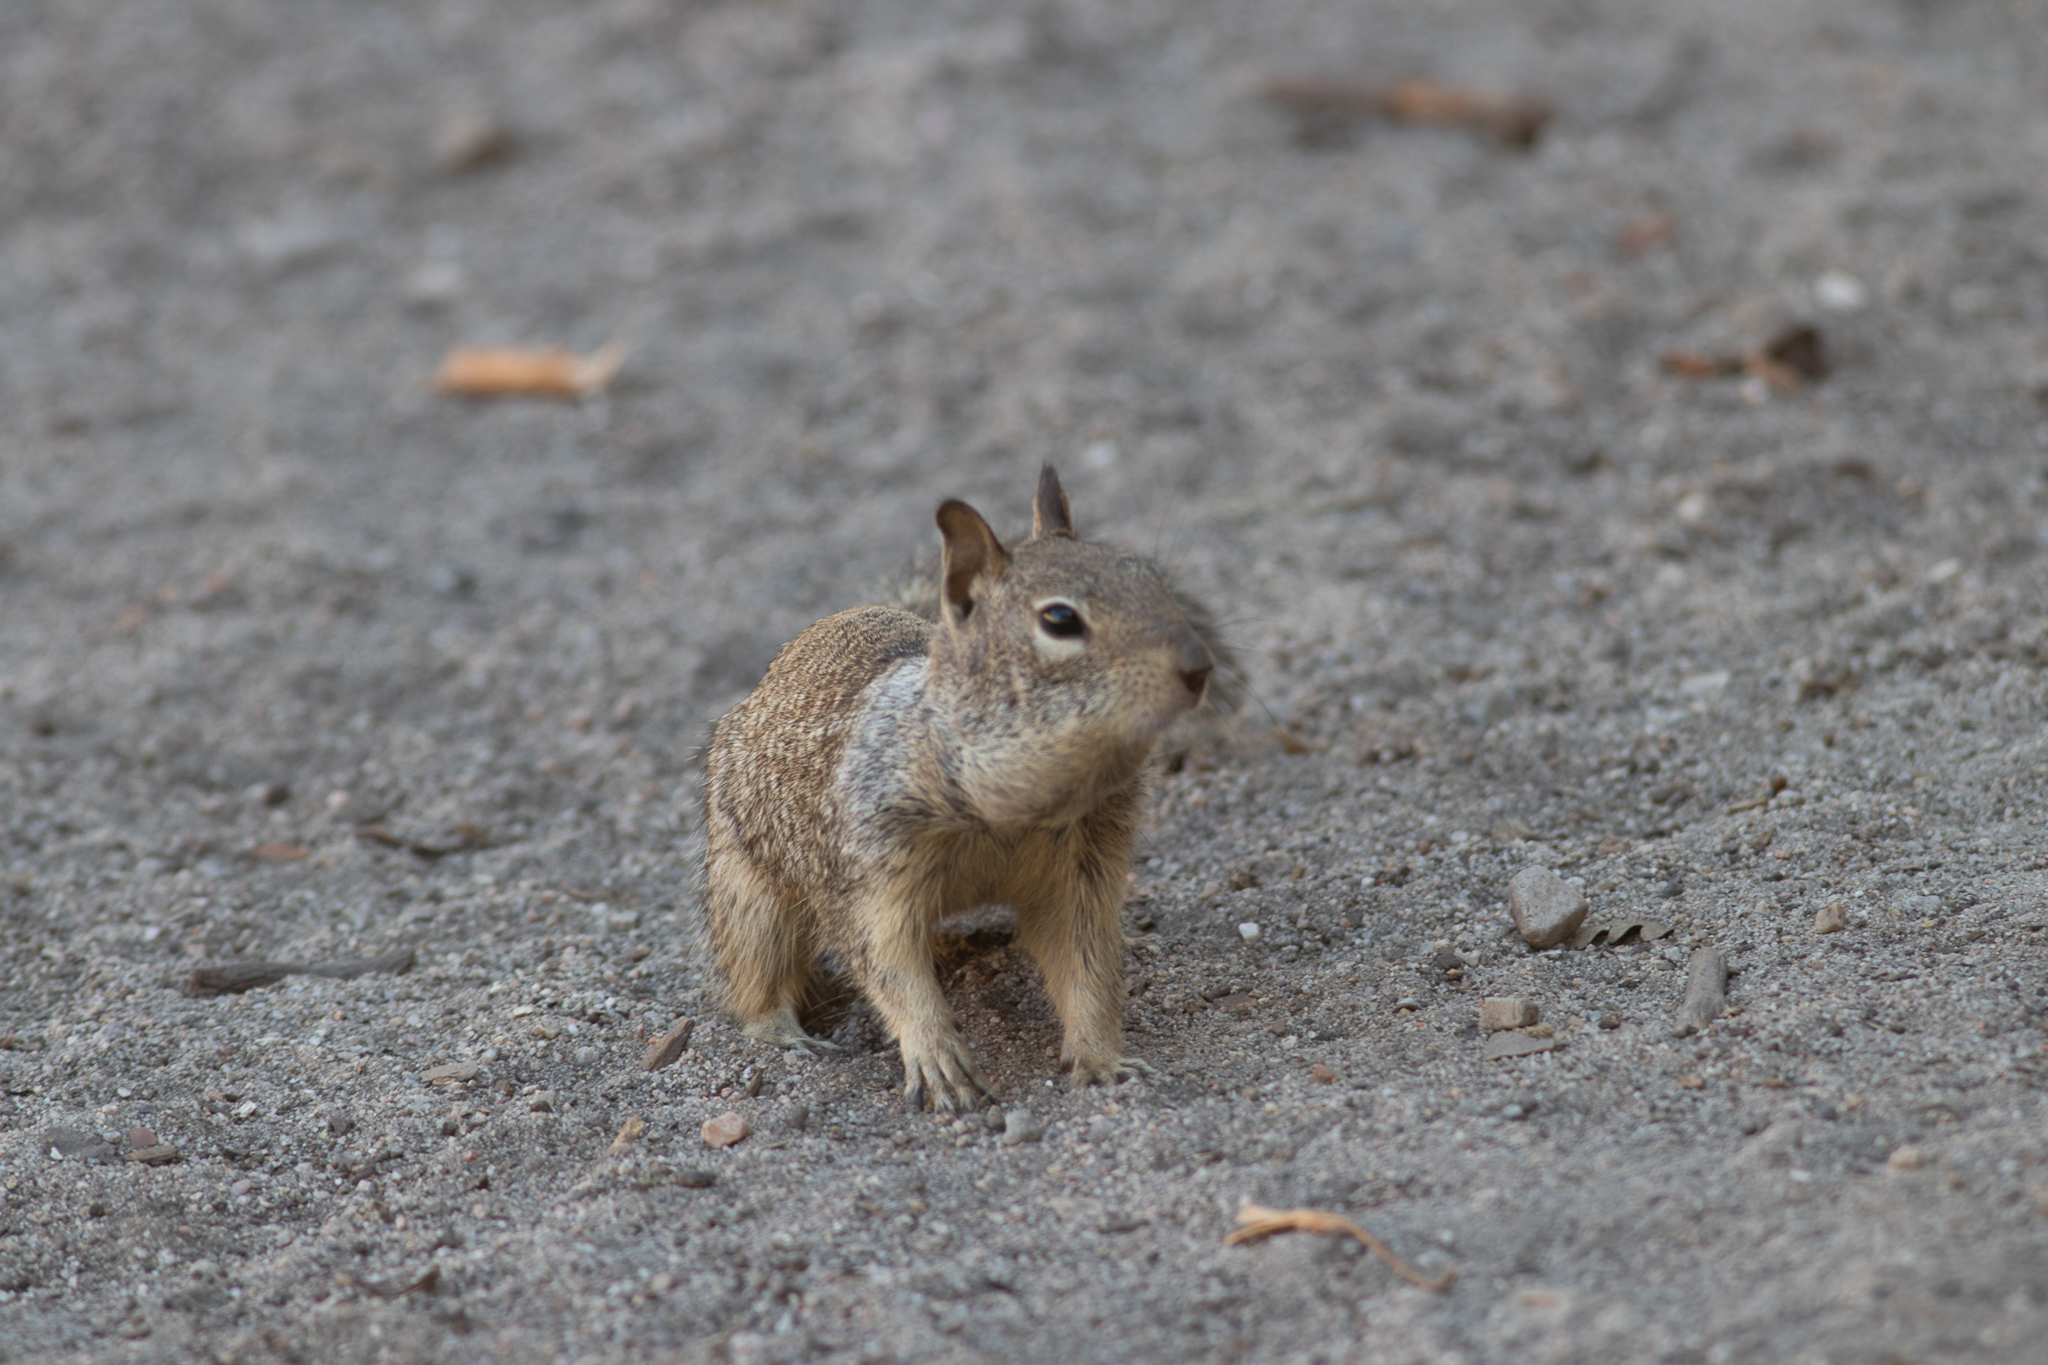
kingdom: Animalia
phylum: Chordata
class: Mammalia
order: Rodentia
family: Sciuridae
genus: Otospermophilus
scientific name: Otospermophilus beecheyi
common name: California ground squirrel
